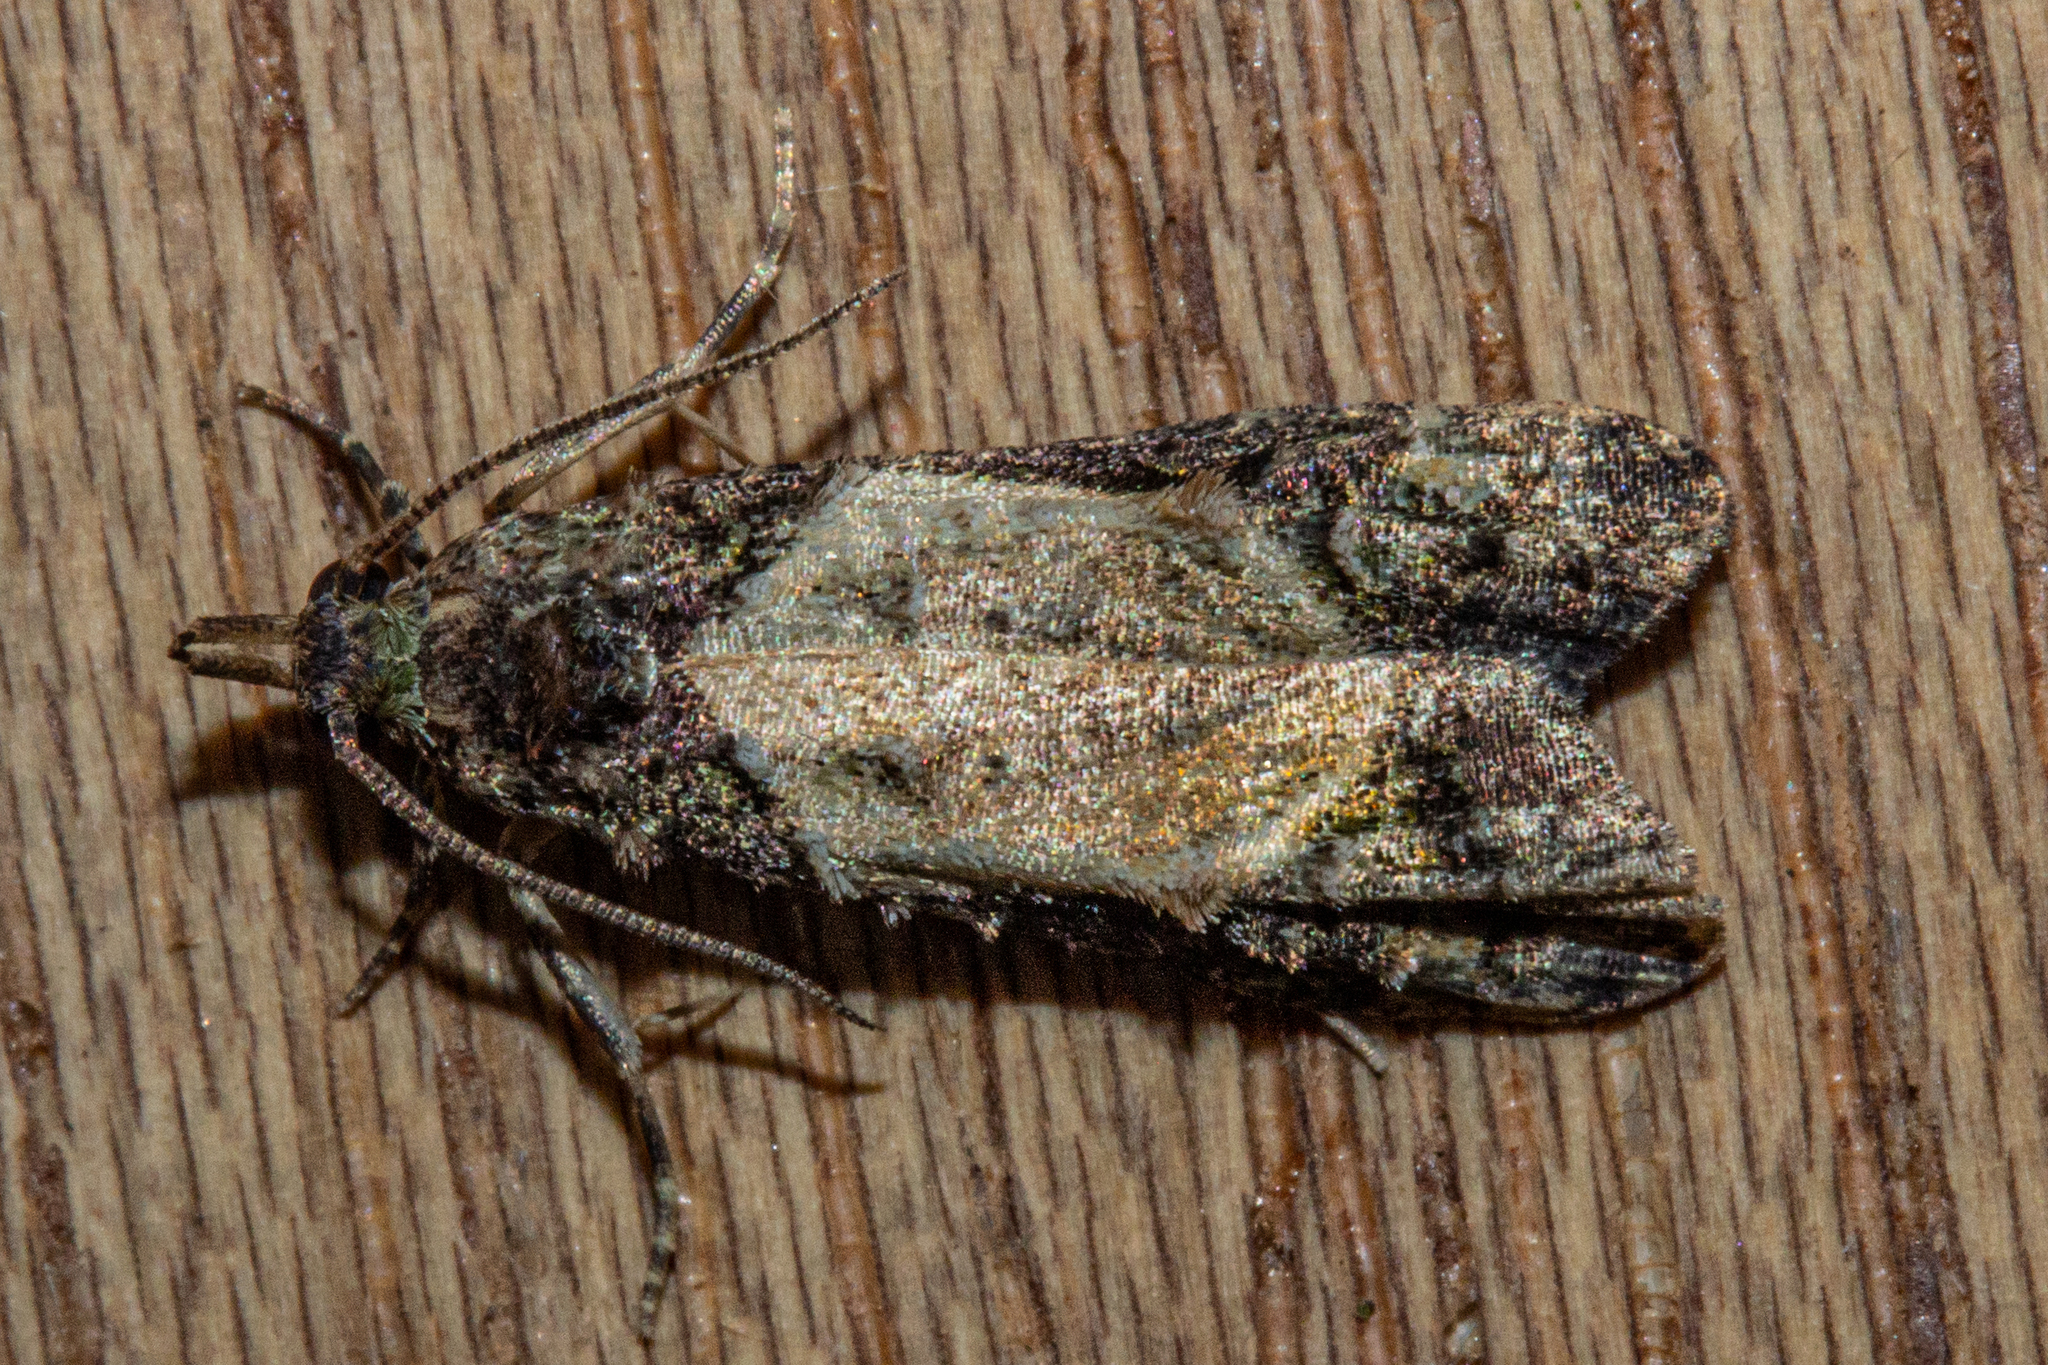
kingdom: Animalia
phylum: Arthropoda
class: Insecta
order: Lepidoptera
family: Copromorphidae
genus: Phycomorpha
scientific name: Phycomorpha metachrysa
